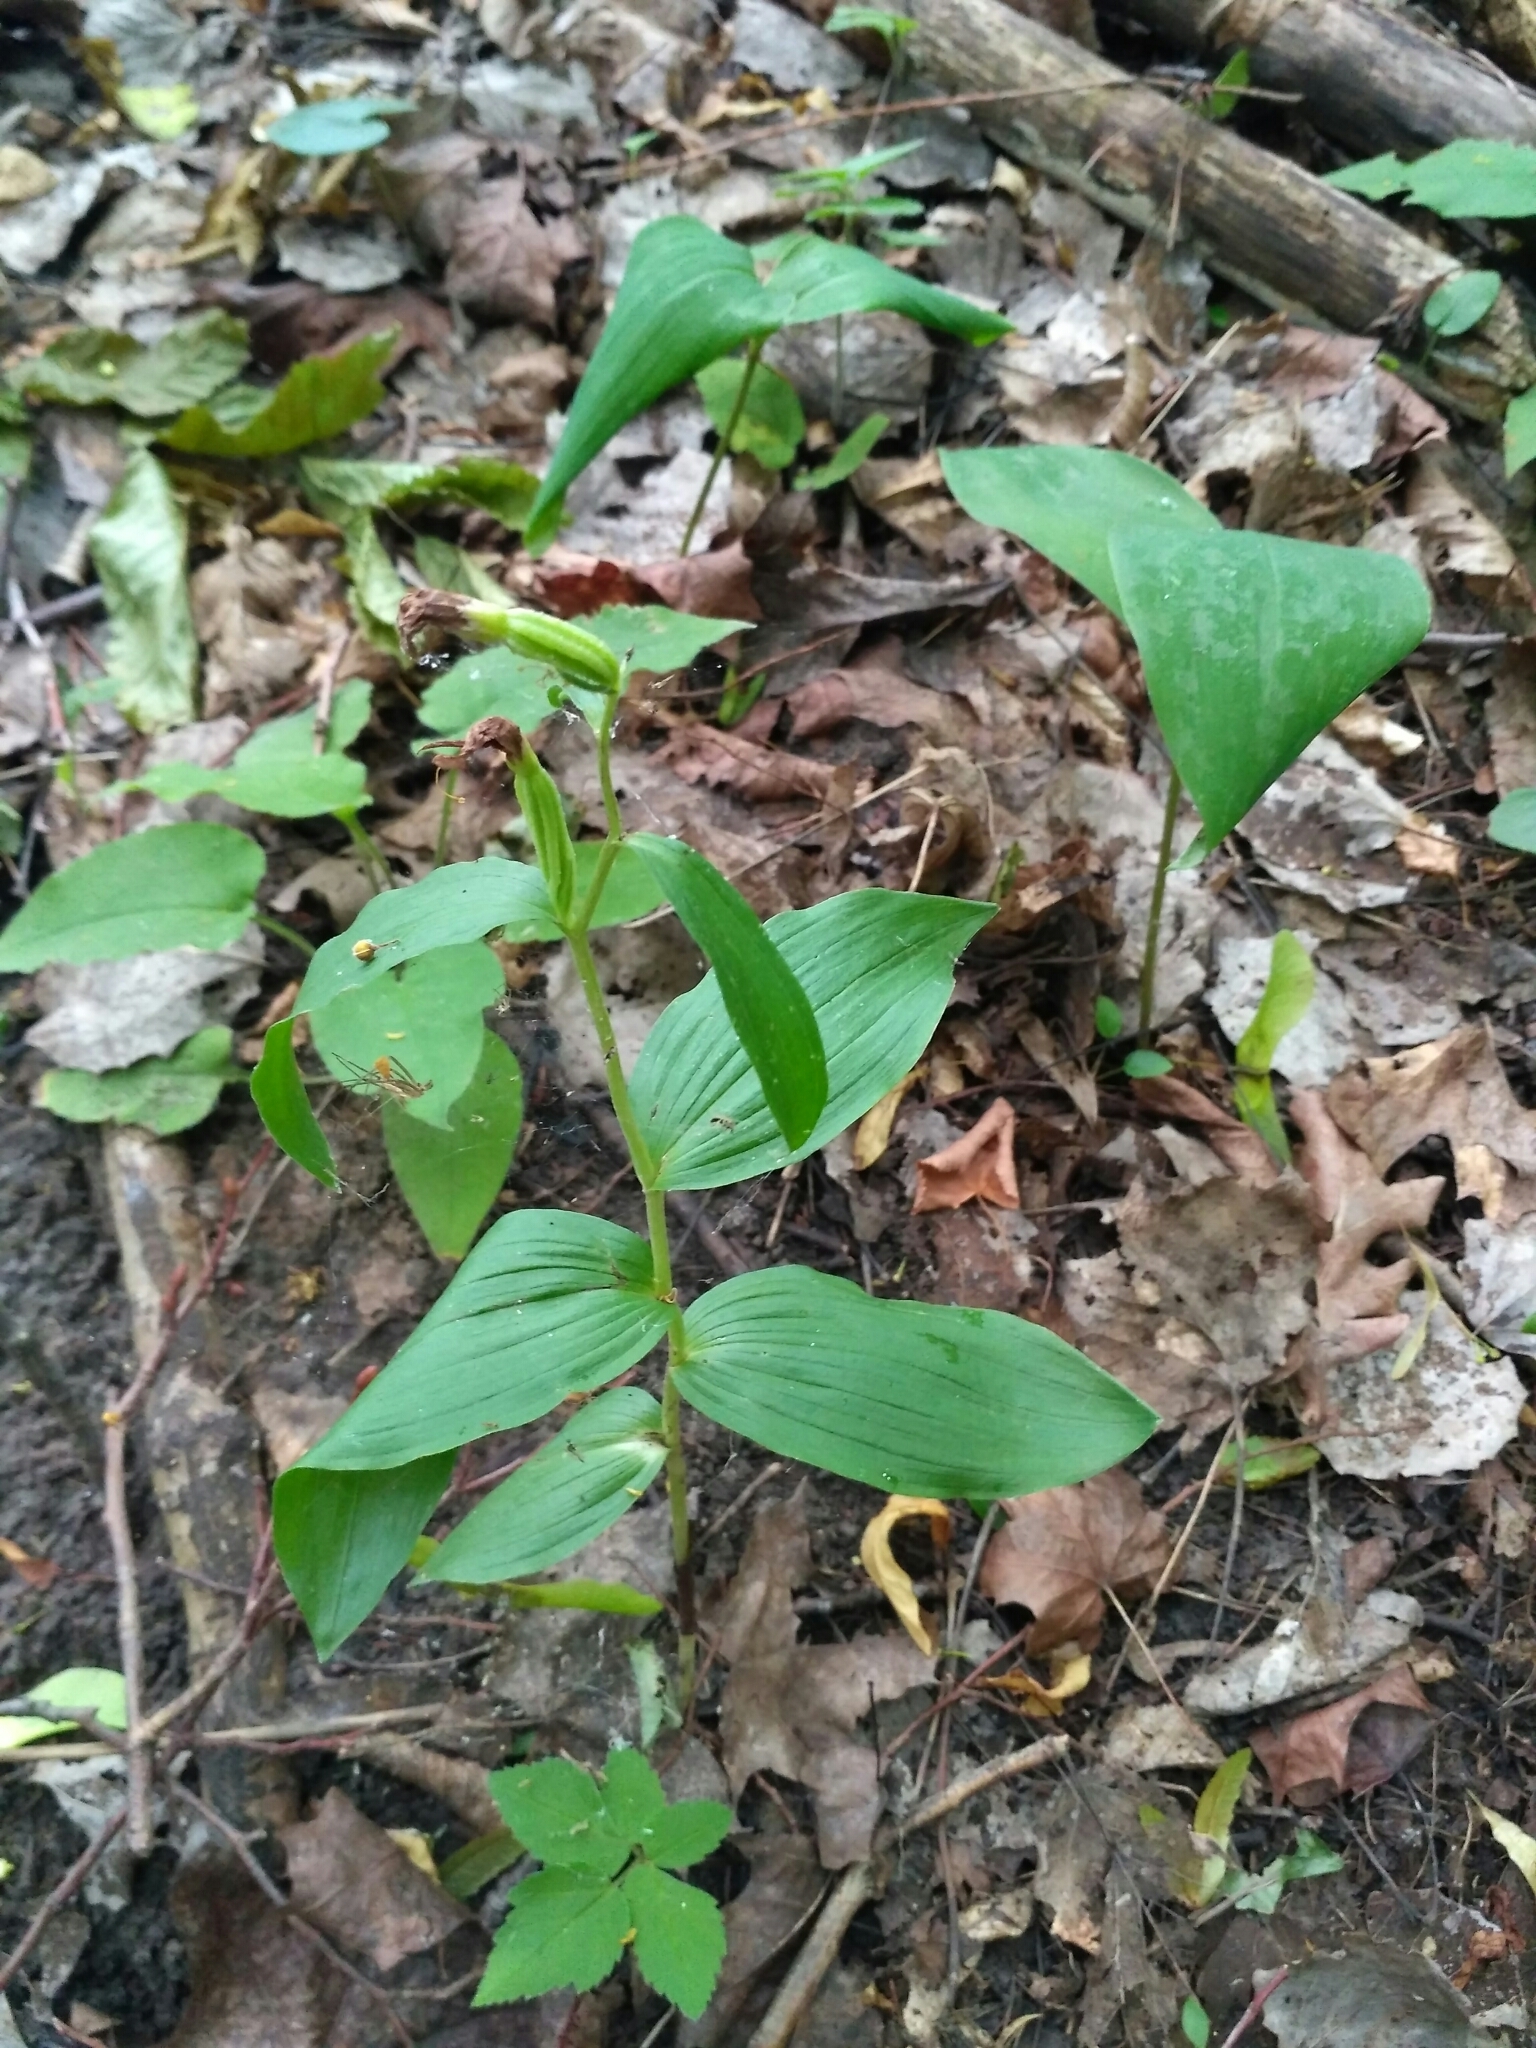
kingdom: Plantae
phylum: Tracheophyta
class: Liliopsida
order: Asparagales
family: Orchidaceae
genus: Cephalanthera
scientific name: Cephalanthera damasonium
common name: White helleborine
